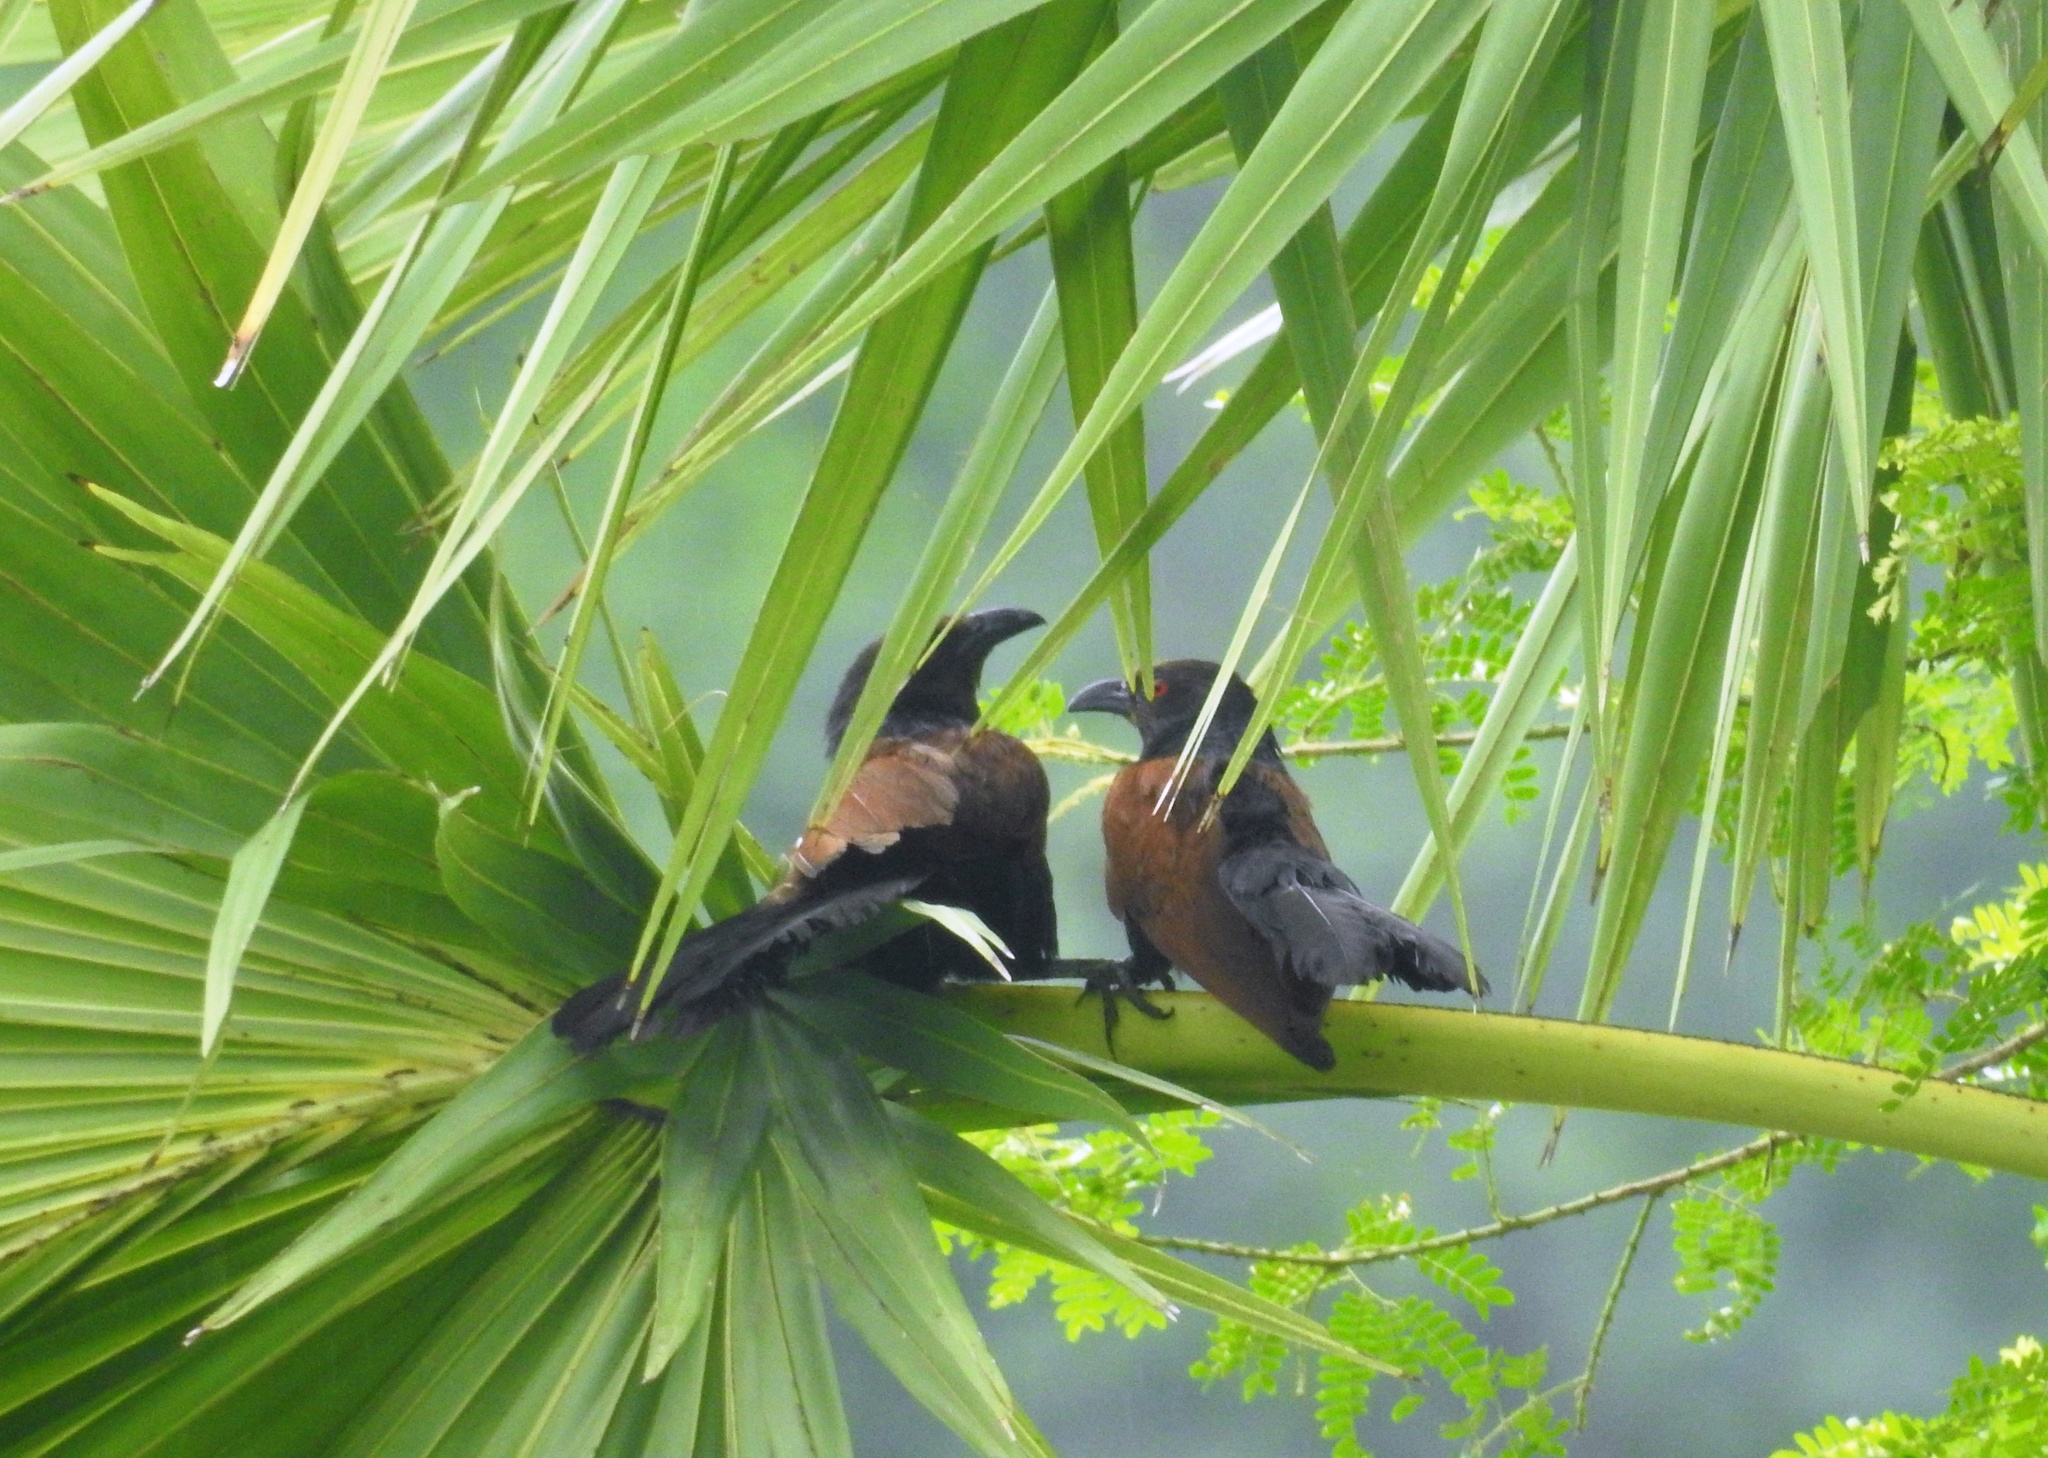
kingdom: Animalia
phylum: Chordata
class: Aves
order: Cuculiformes
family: Cuculidae
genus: Centropus
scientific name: Centropus sinensis
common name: Greater coucal
